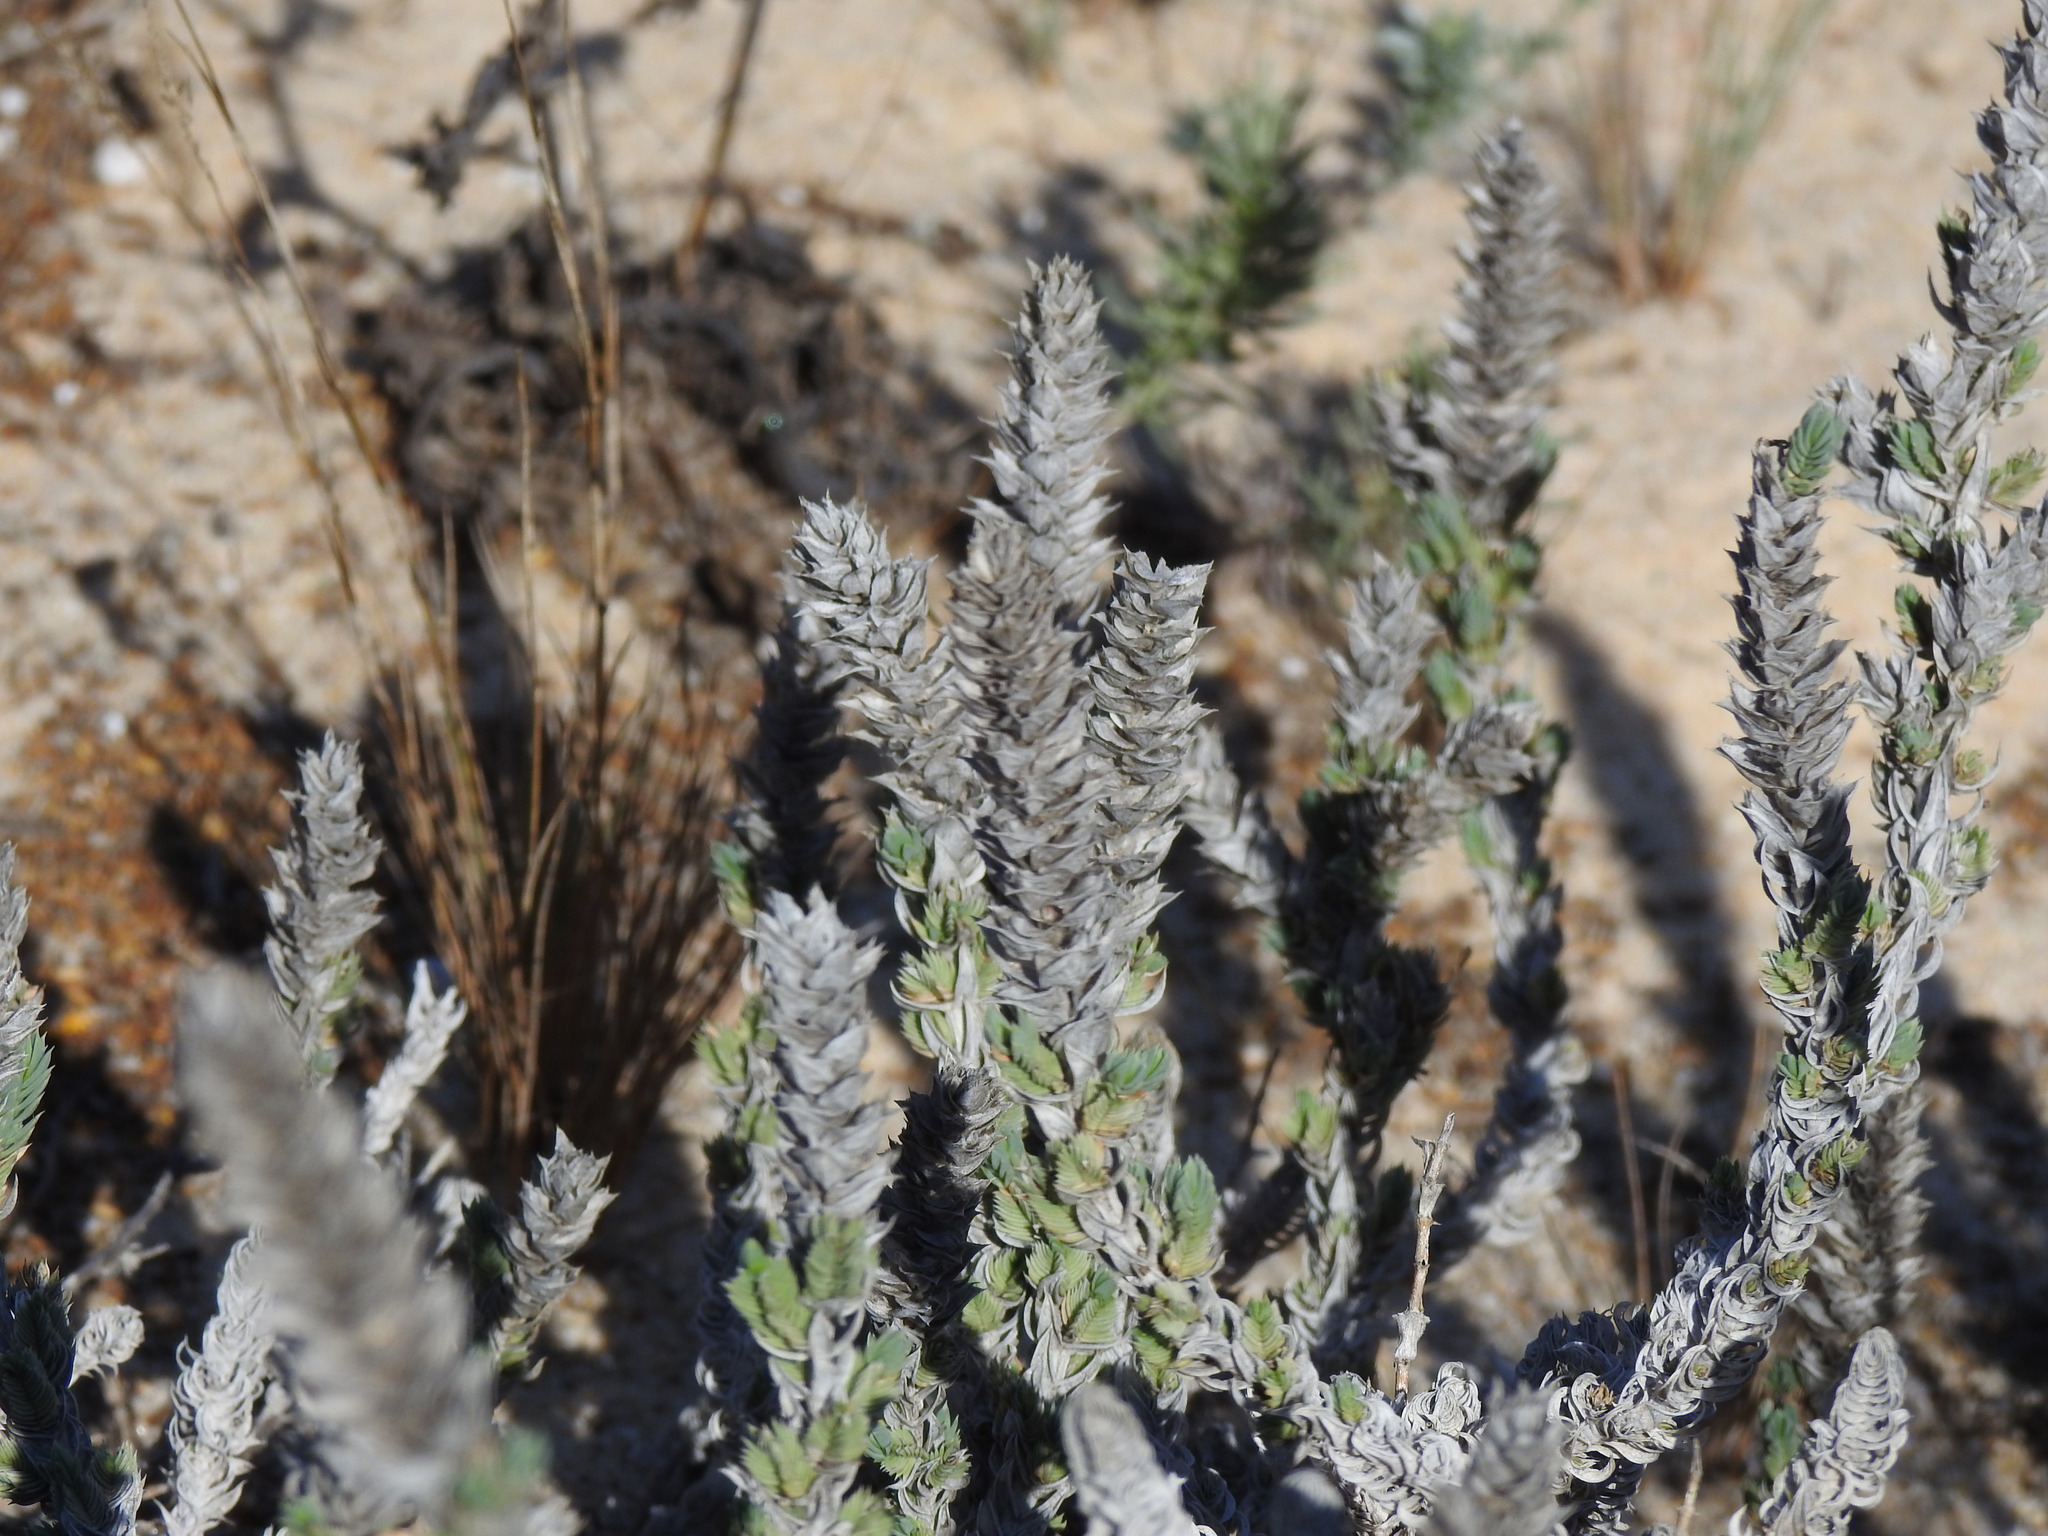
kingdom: Plantae
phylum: Tracheophyta
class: Magnoliopsida
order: Gentianales
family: Rubiaceae
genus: Crucianella
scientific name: Crucianella maritima
